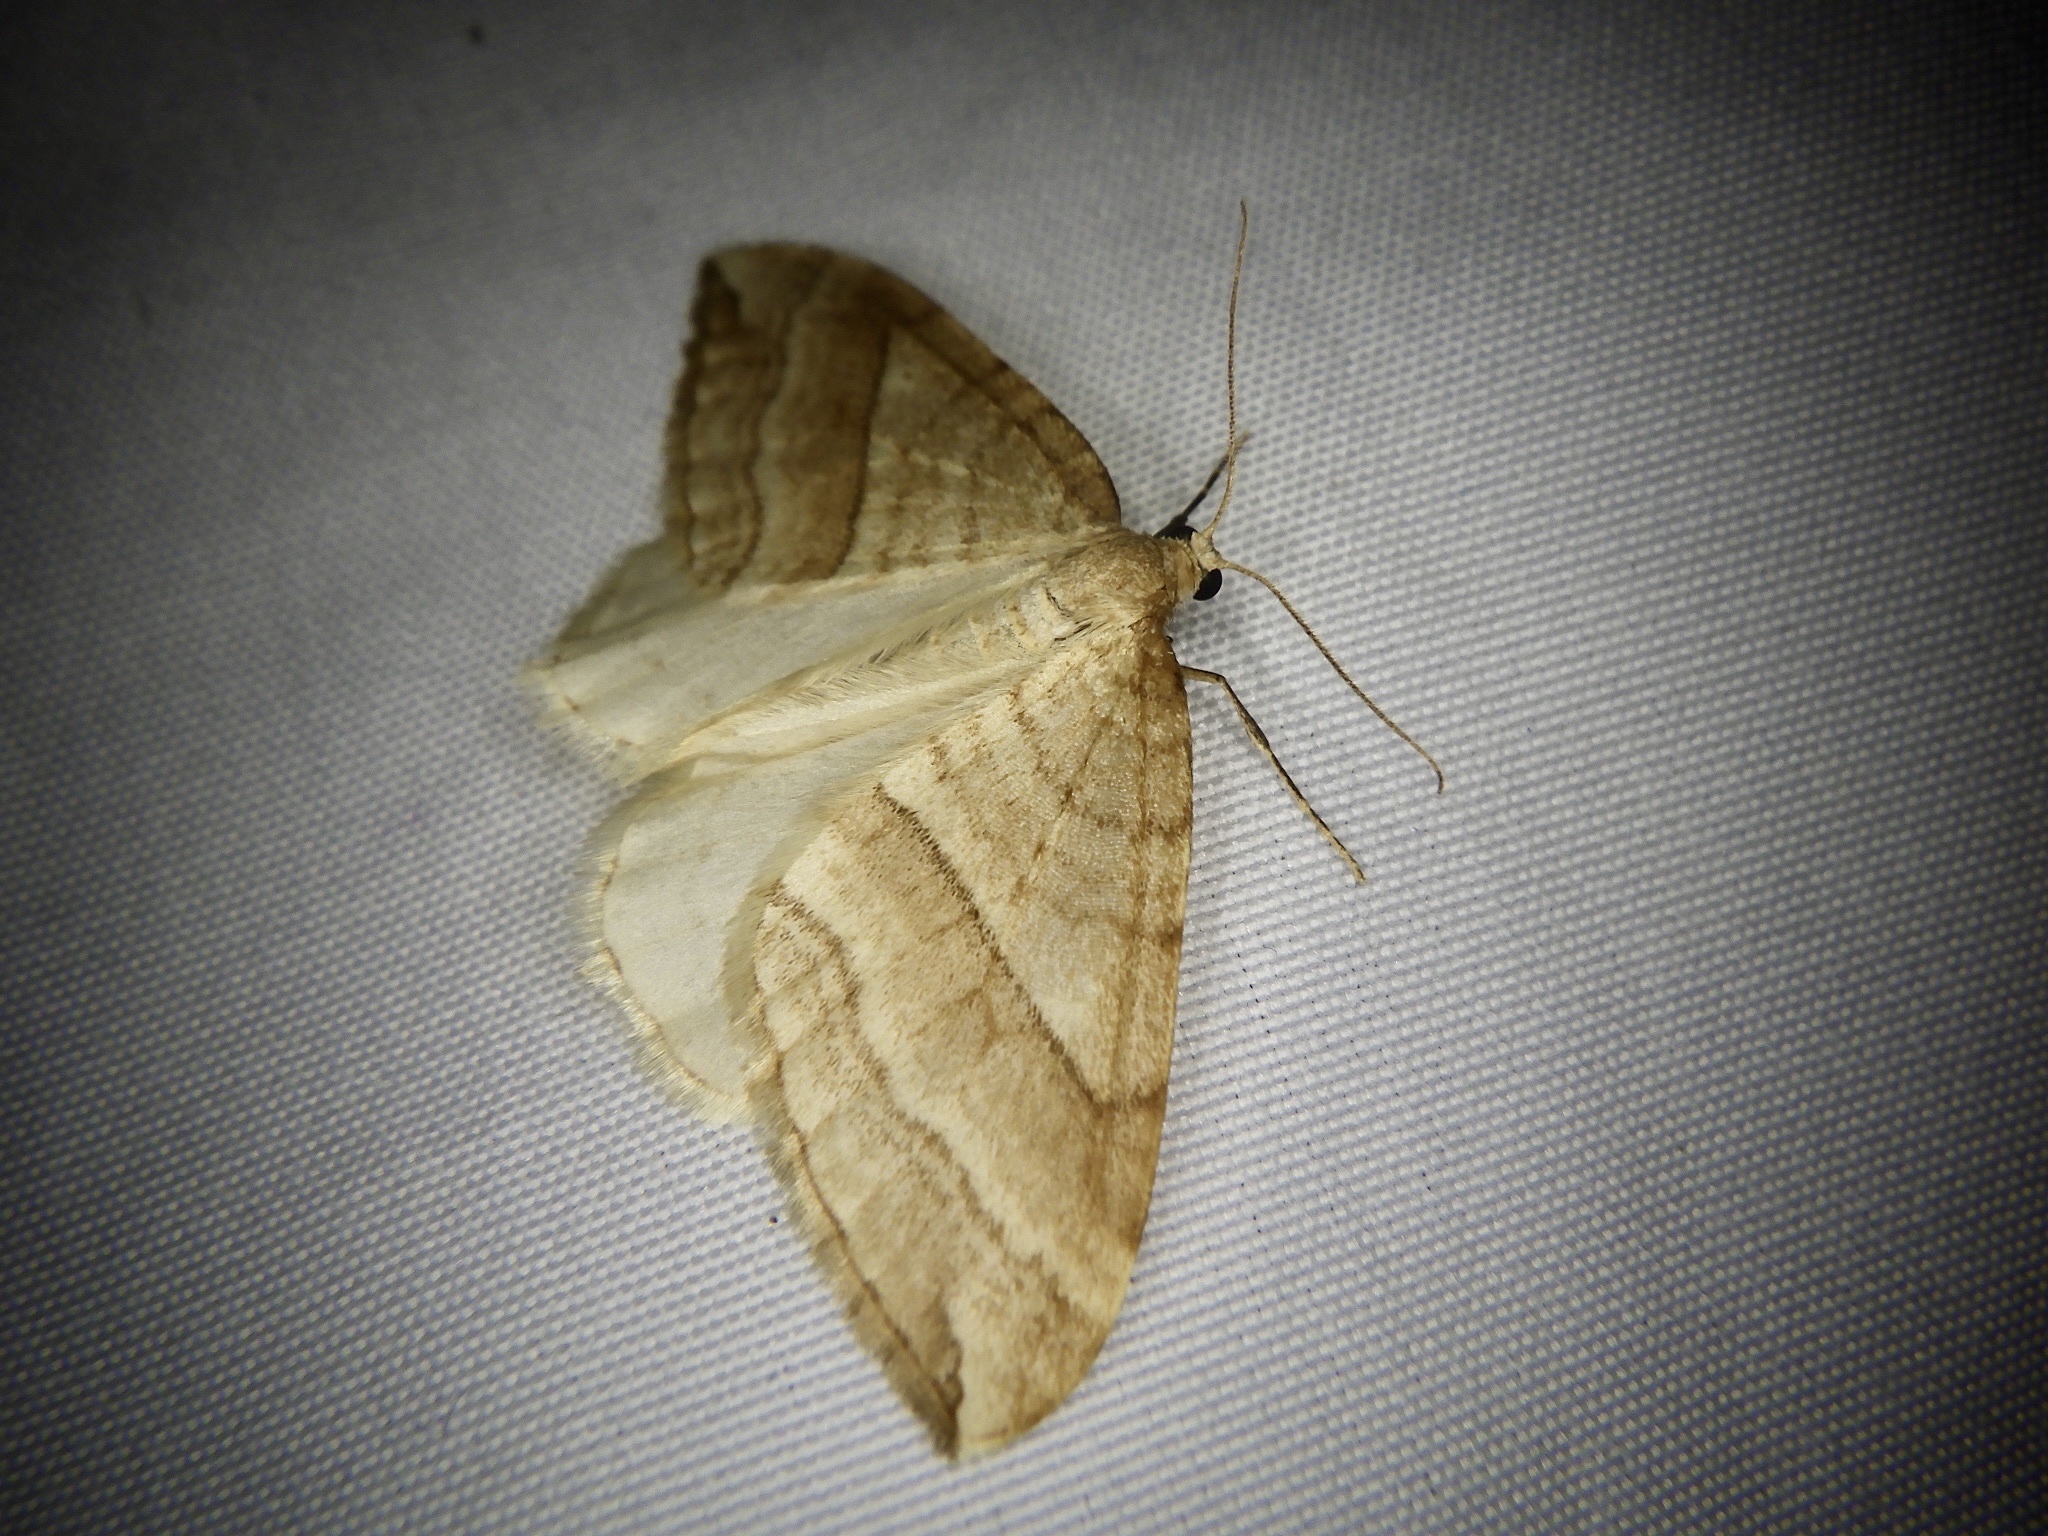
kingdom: Animalia
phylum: Arthropoda
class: Insecta
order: Lepidoptera
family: Geometridae
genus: Nothoporinia
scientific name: Nothoporinia mediolineata
